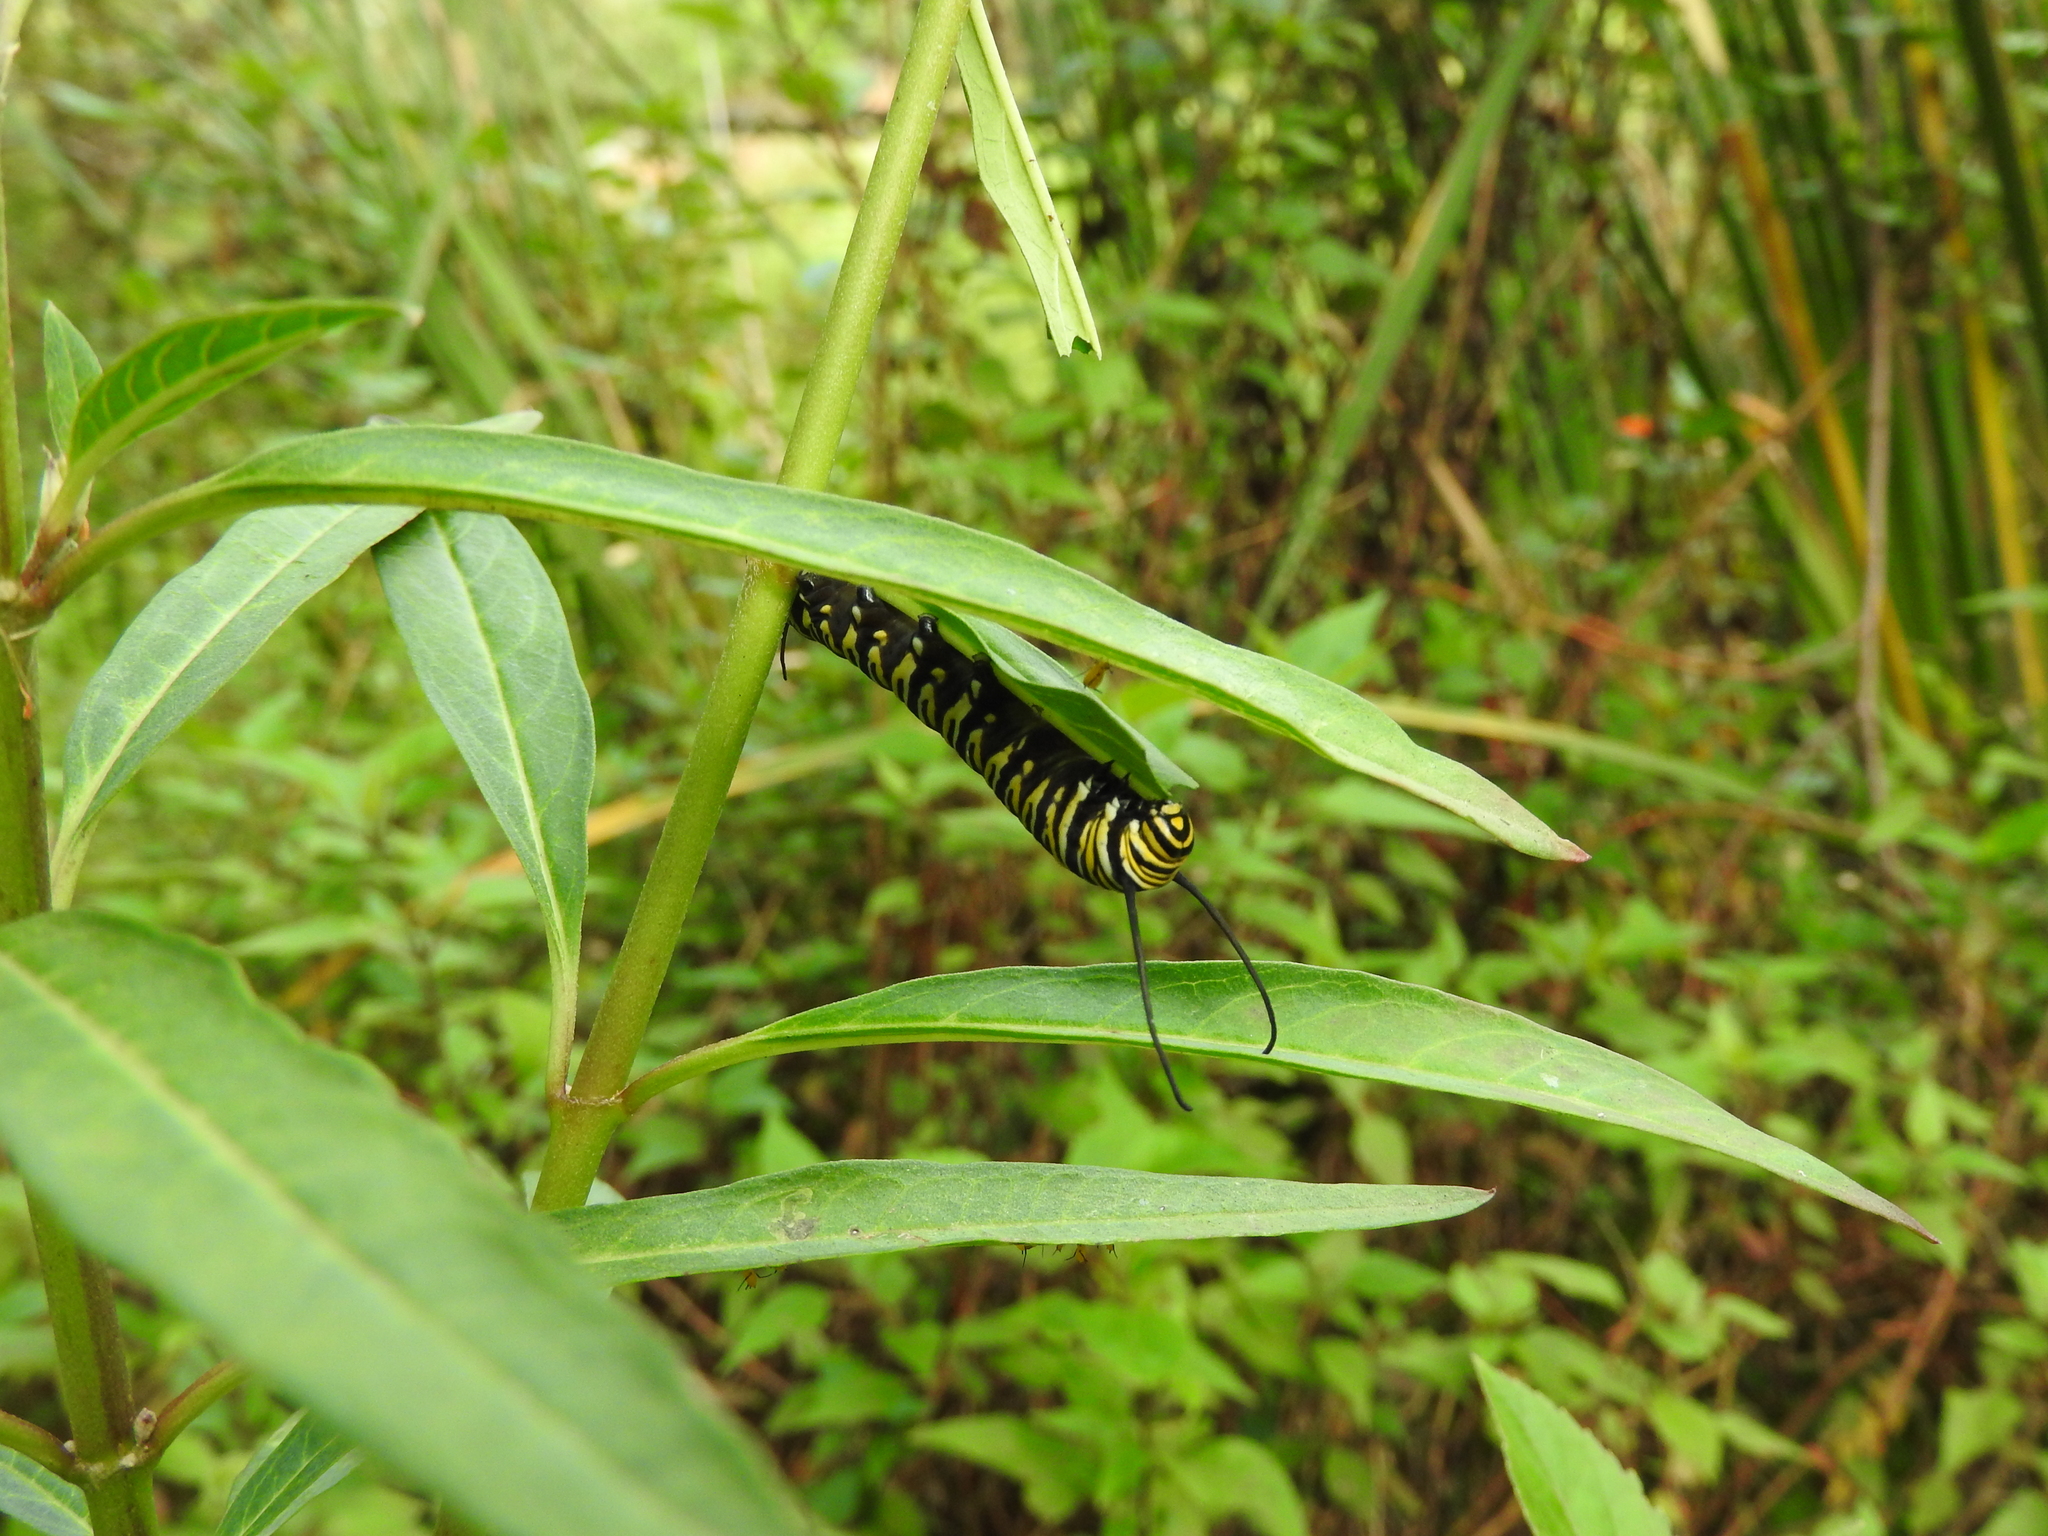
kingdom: Animalia
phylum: Arthropoda
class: Insecta
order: Lepidoptera
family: Nymphalidae
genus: Danaus
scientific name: Danaus plexippus
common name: Monarch
